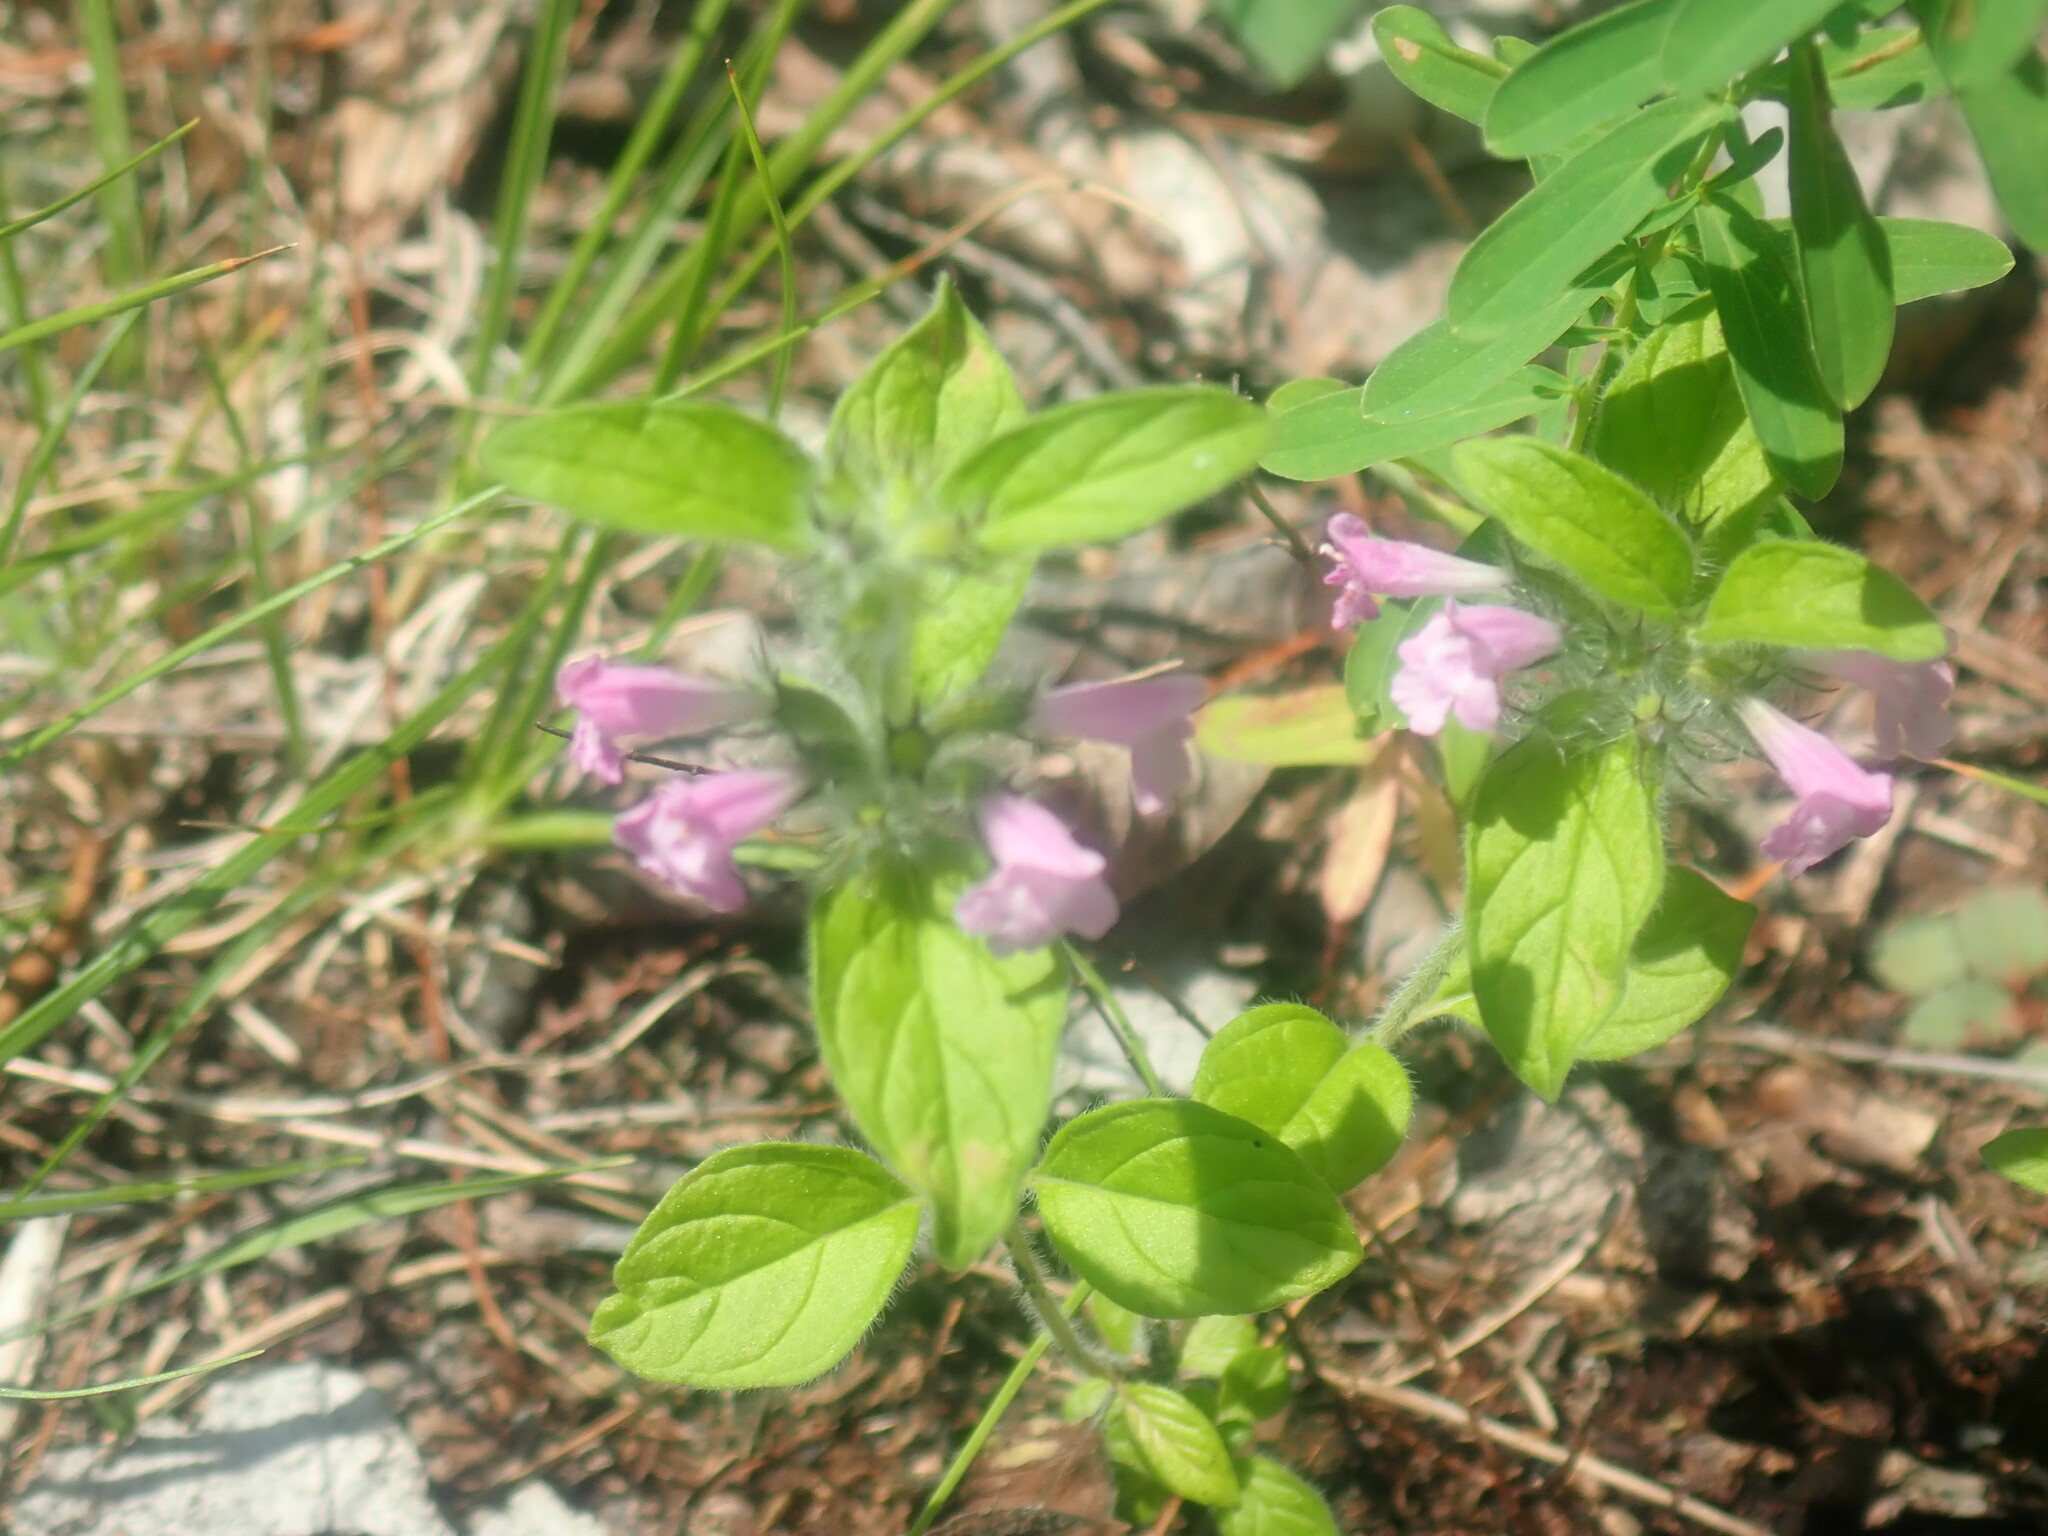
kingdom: Plantae
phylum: Tracheophyta
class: Magnoliopsida
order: Lamiales
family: Lamiaceae
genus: Clinopodium
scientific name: Clinopodium vulgare
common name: Wild basil
